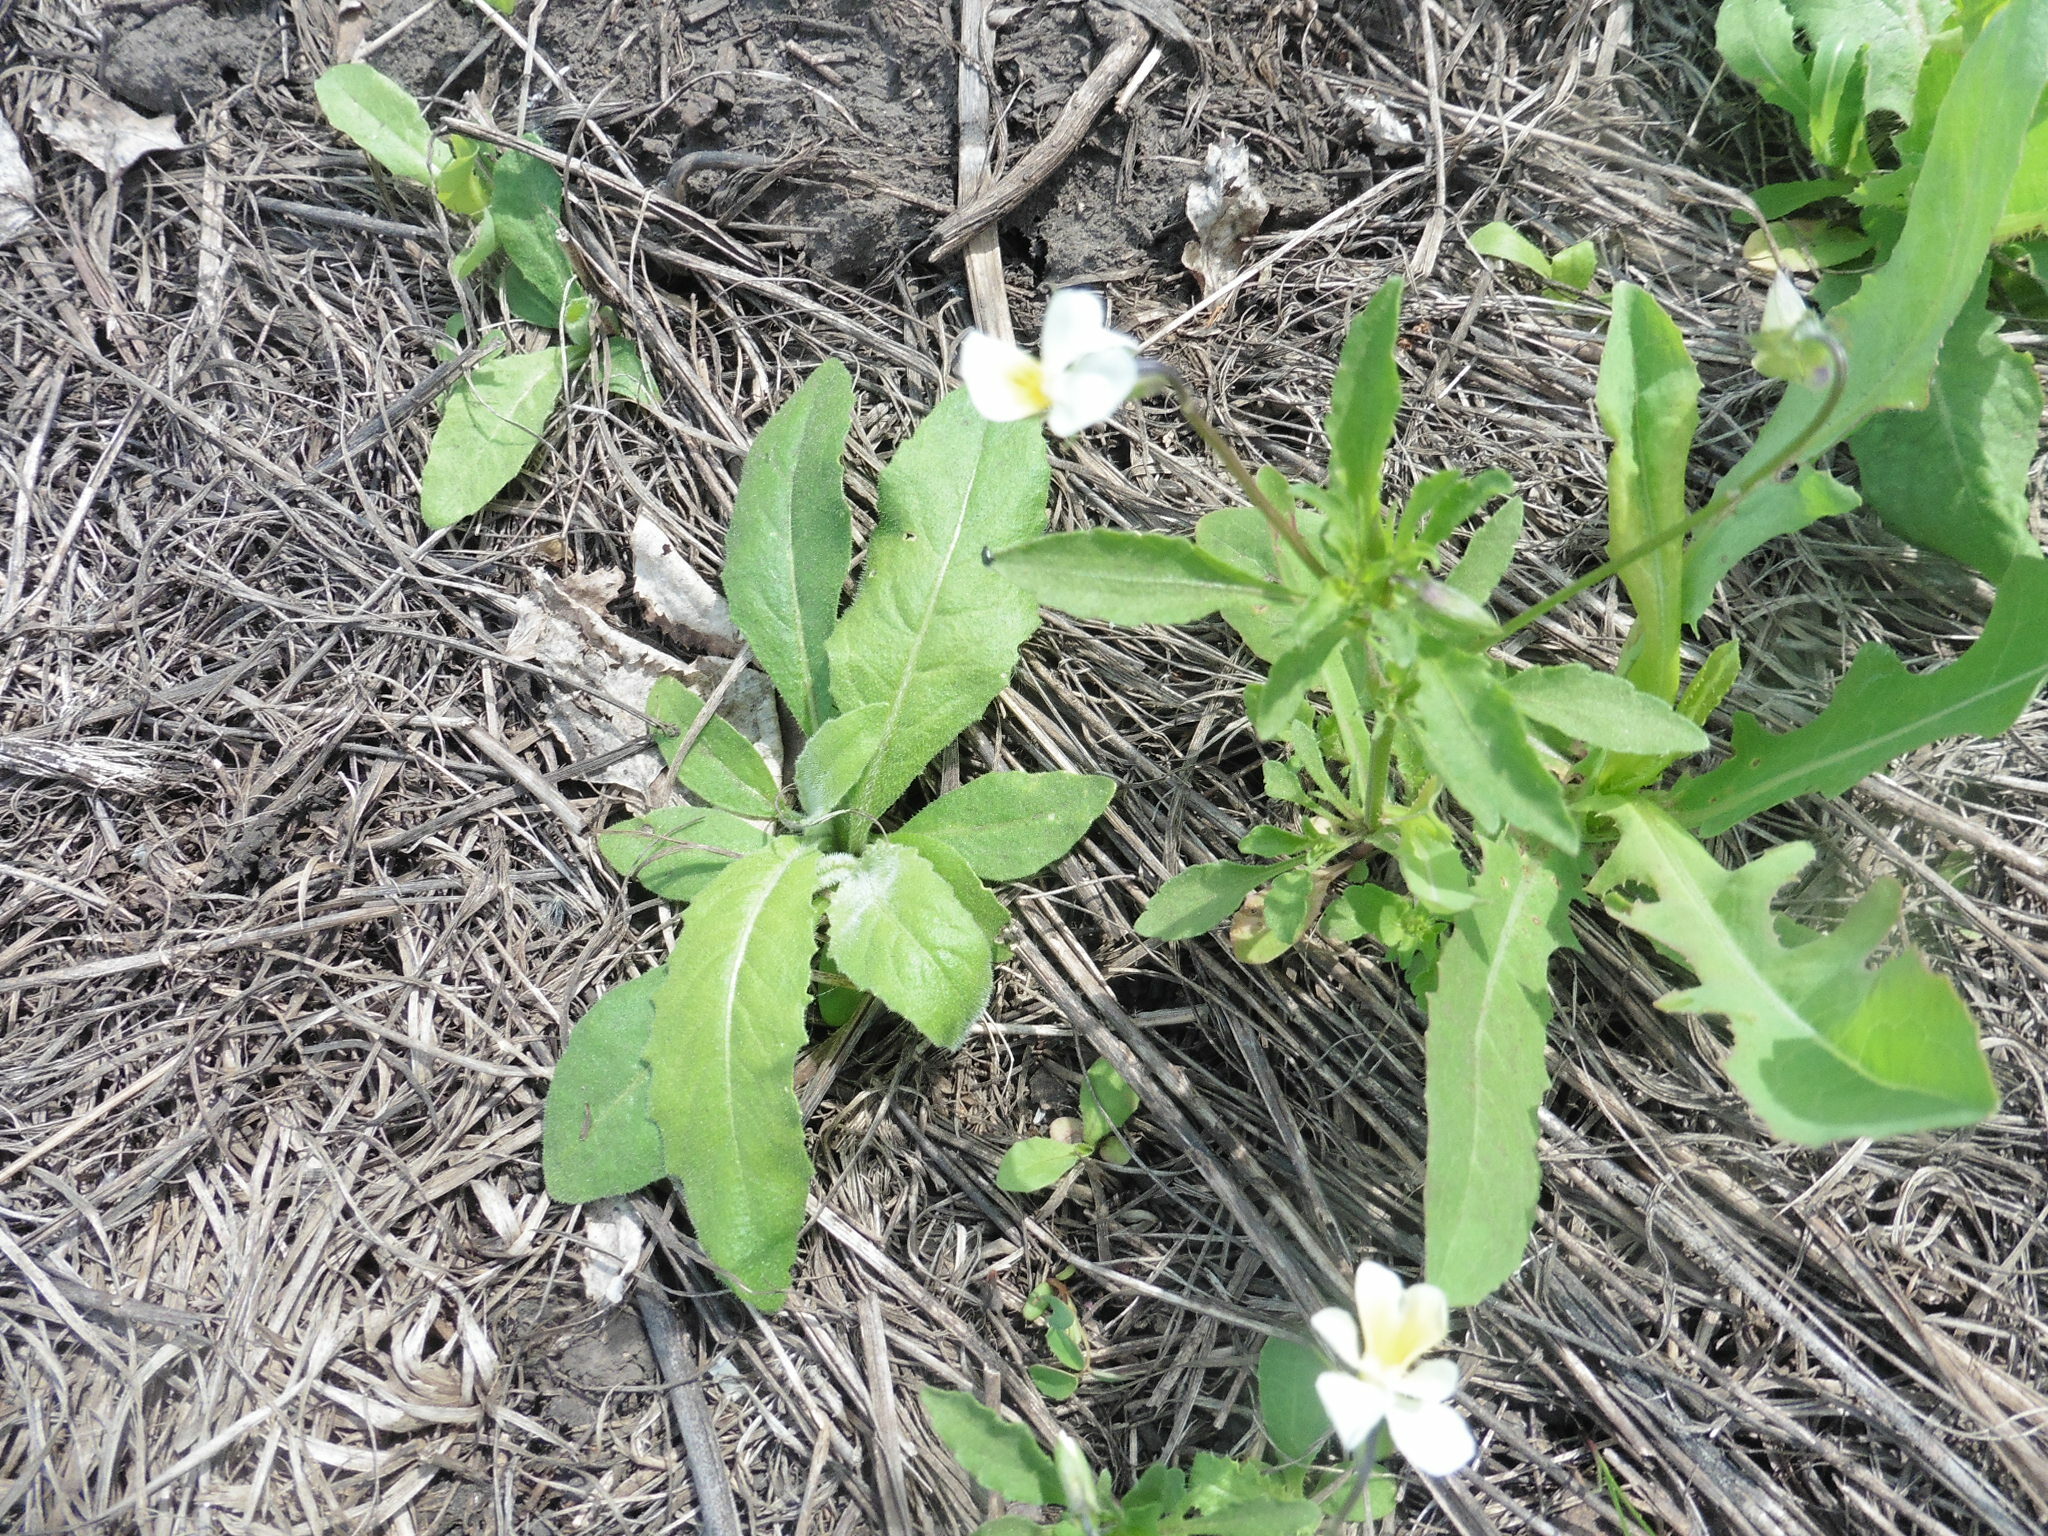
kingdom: Plantae
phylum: Tracheophyta
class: Magnoliopsida
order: Malpighiales
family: Violaceae
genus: Viola
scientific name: Viola arvensis
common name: Field pansy
